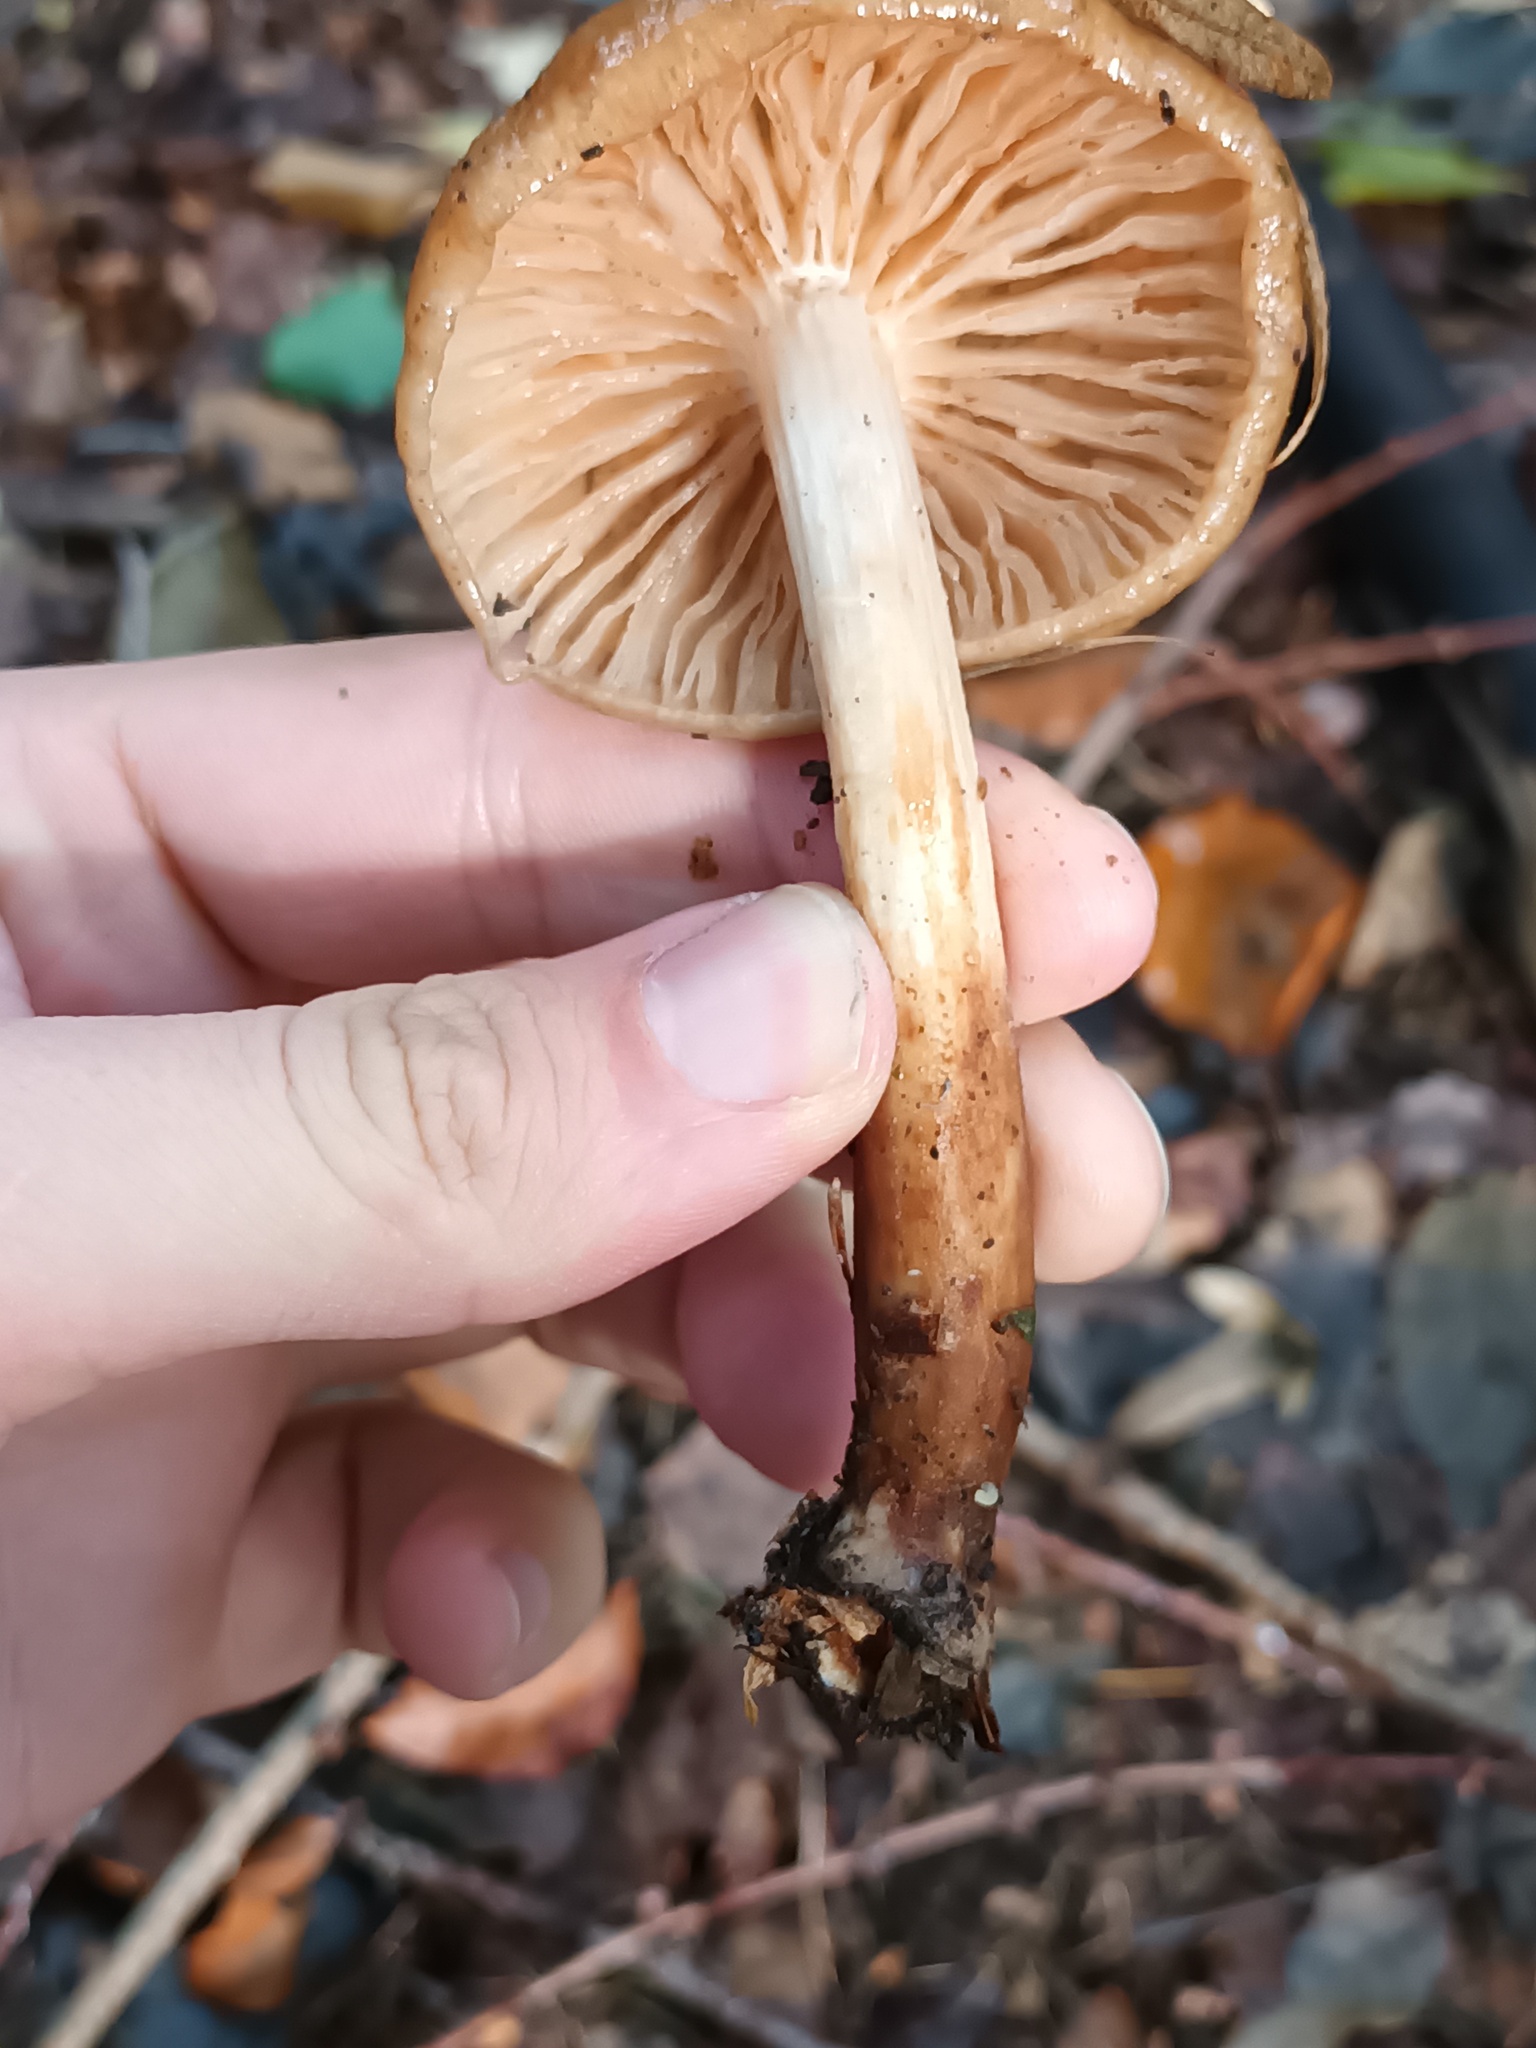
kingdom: Fungi
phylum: Basidiomycota
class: Agaricomycetes
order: Agaricales
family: Physalacriaceae
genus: Hymenopellis
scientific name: Hymenopellis radicata
